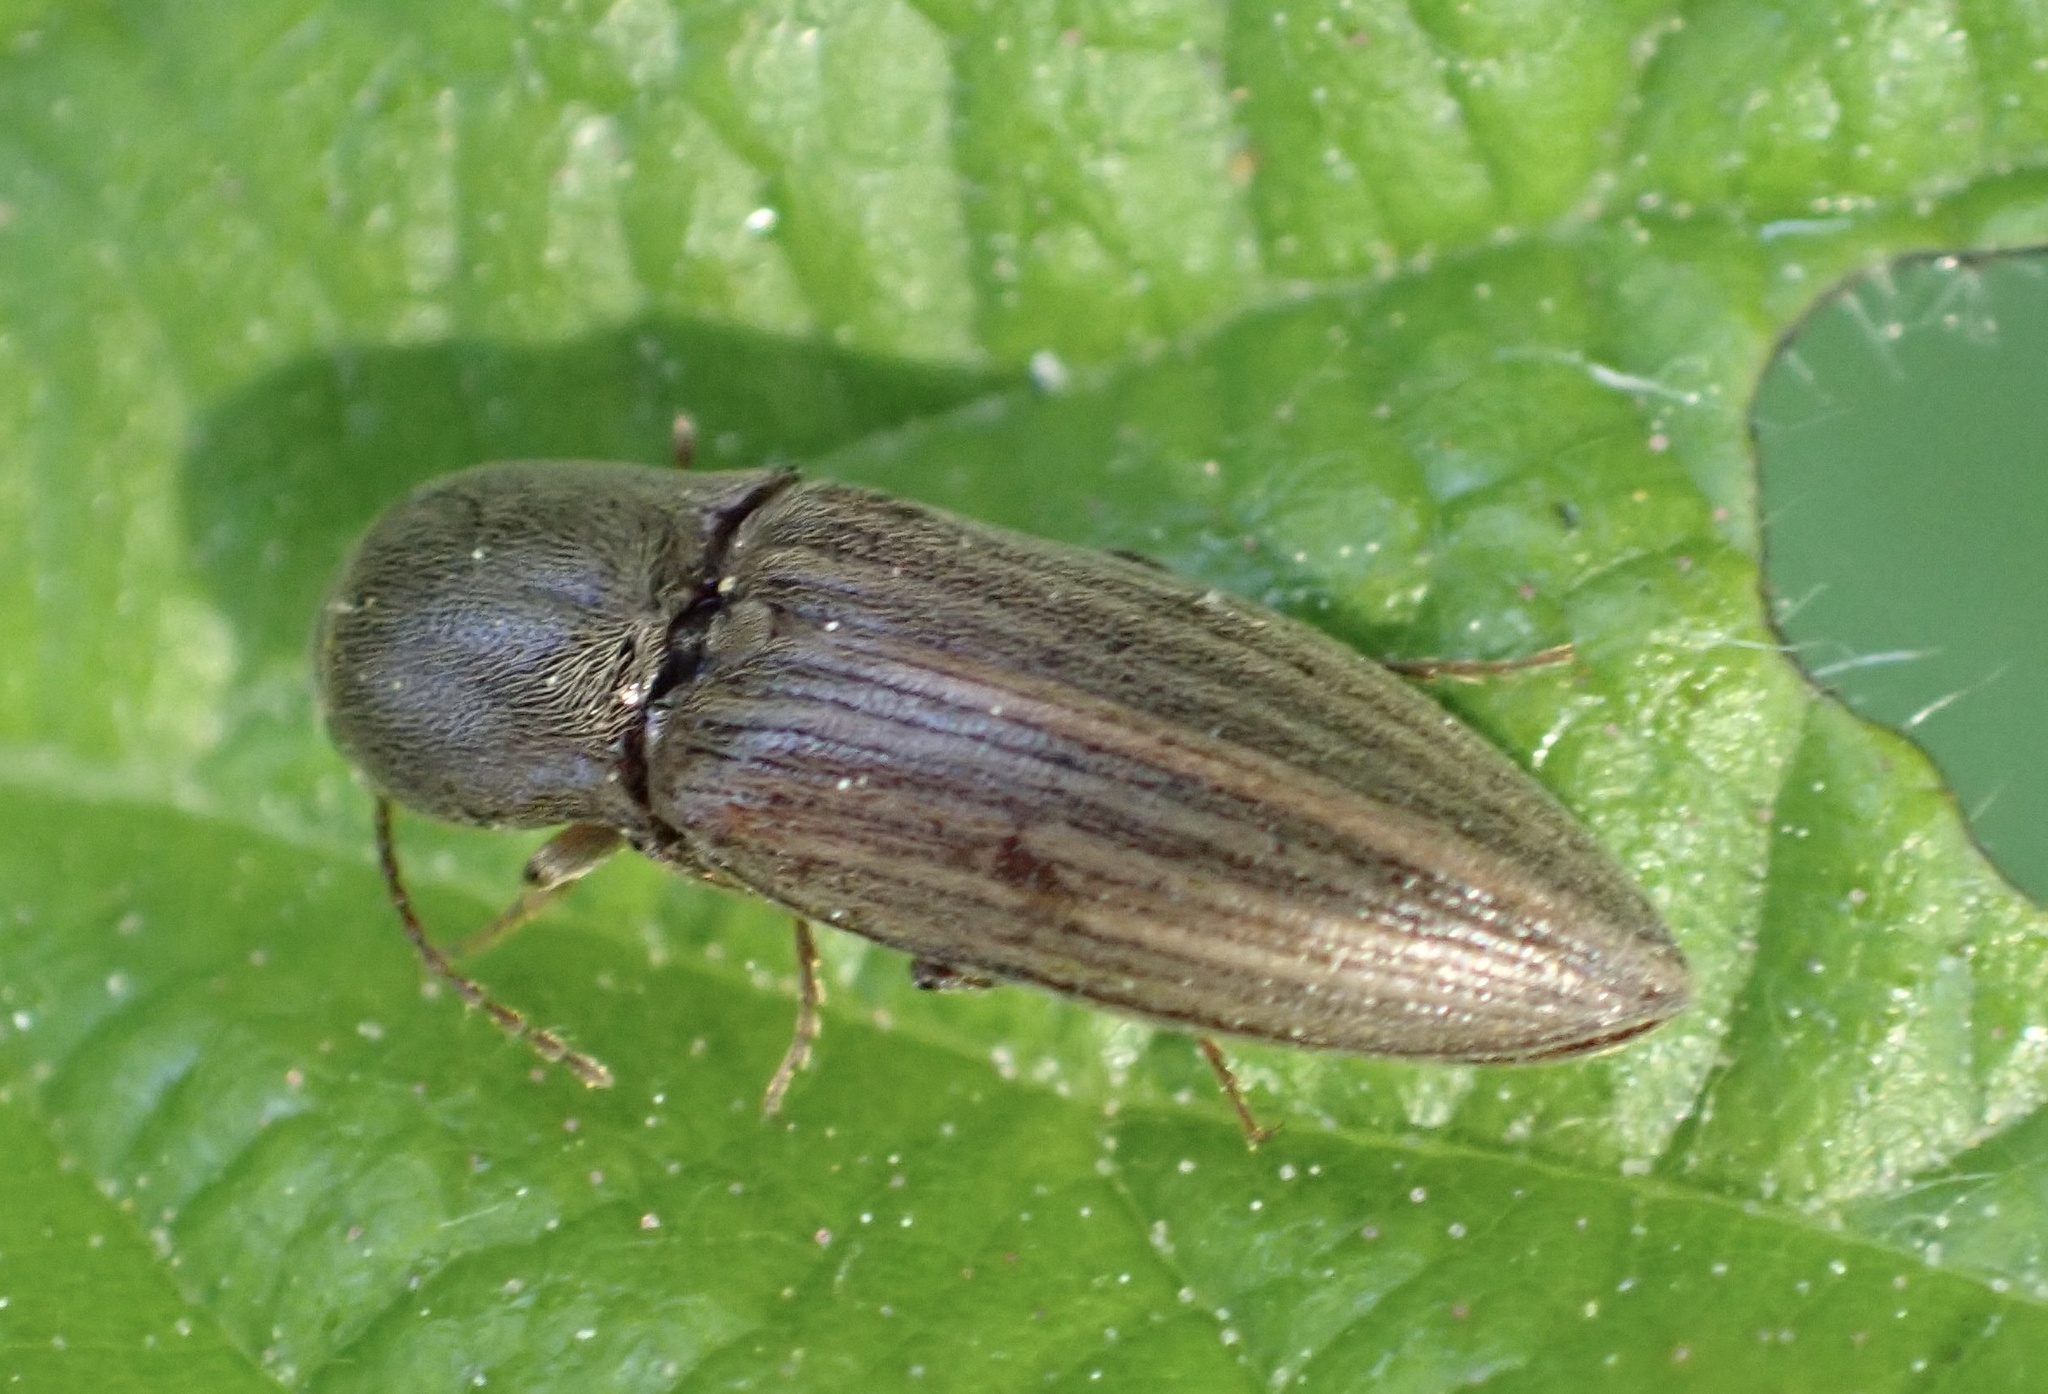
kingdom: Animalia
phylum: Arthropoda
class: Insecta
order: Coleoptera
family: Elateridae
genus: Agriotes
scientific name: Agriotes lineatus
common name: Lined click beetle
